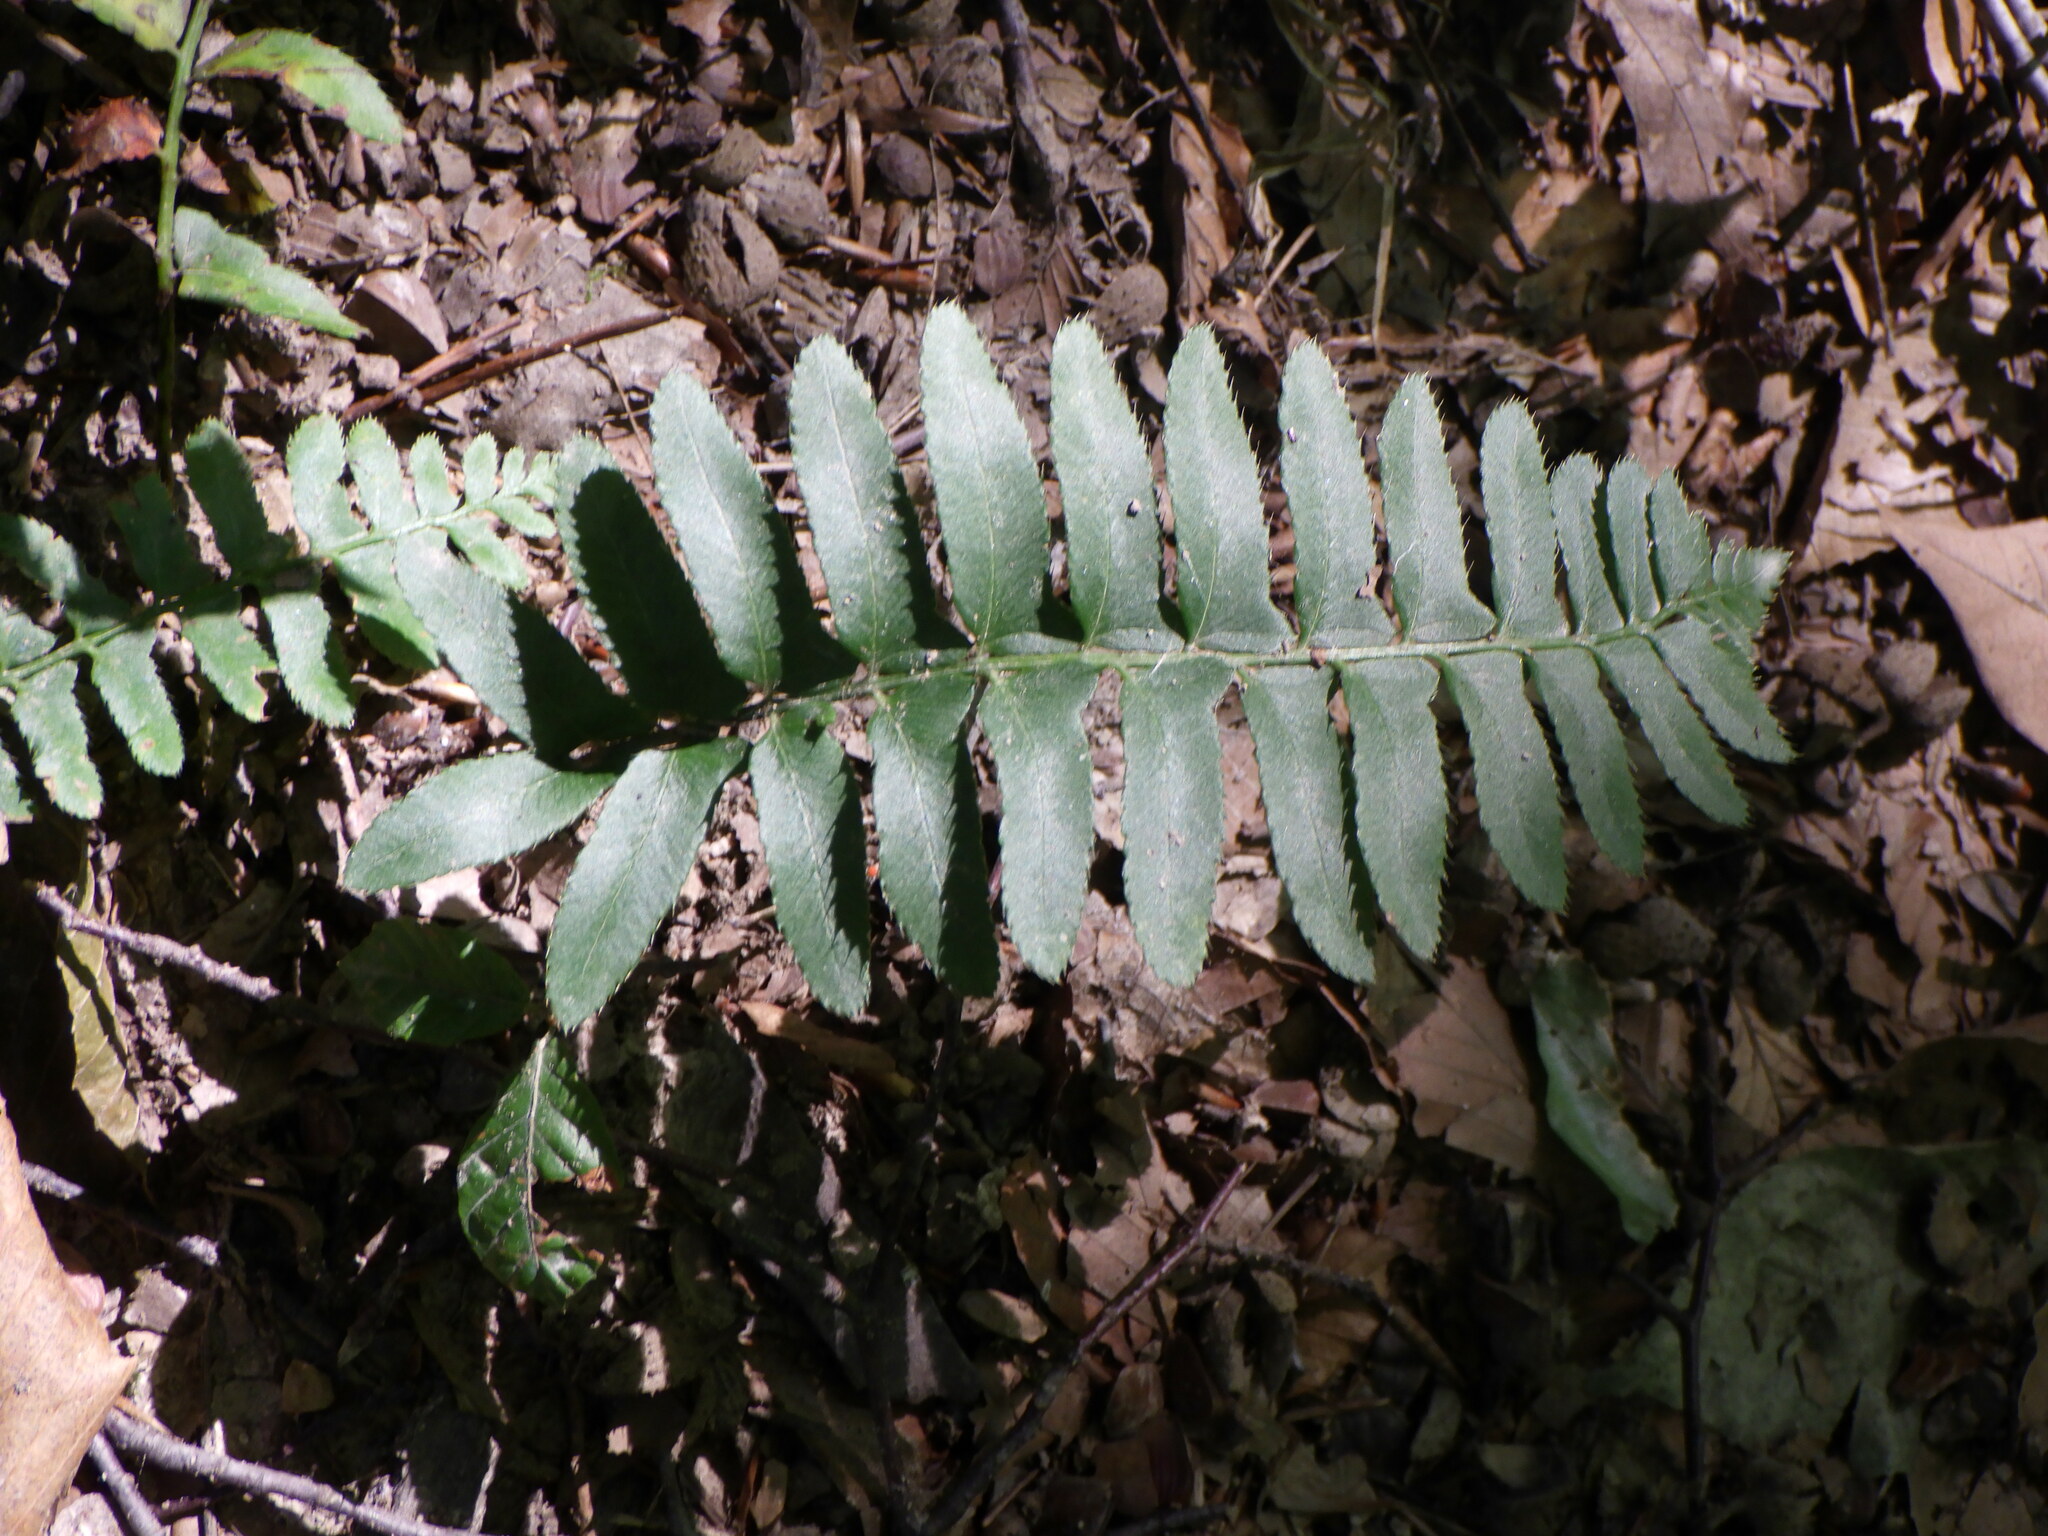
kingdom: Plantae
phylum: Tracheophyta
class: Polypodiopsida
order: Polypodiales
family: Dryopteridaceae
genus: Polystichum
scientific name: Polystichum acrostichoides
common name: Christmas fern
